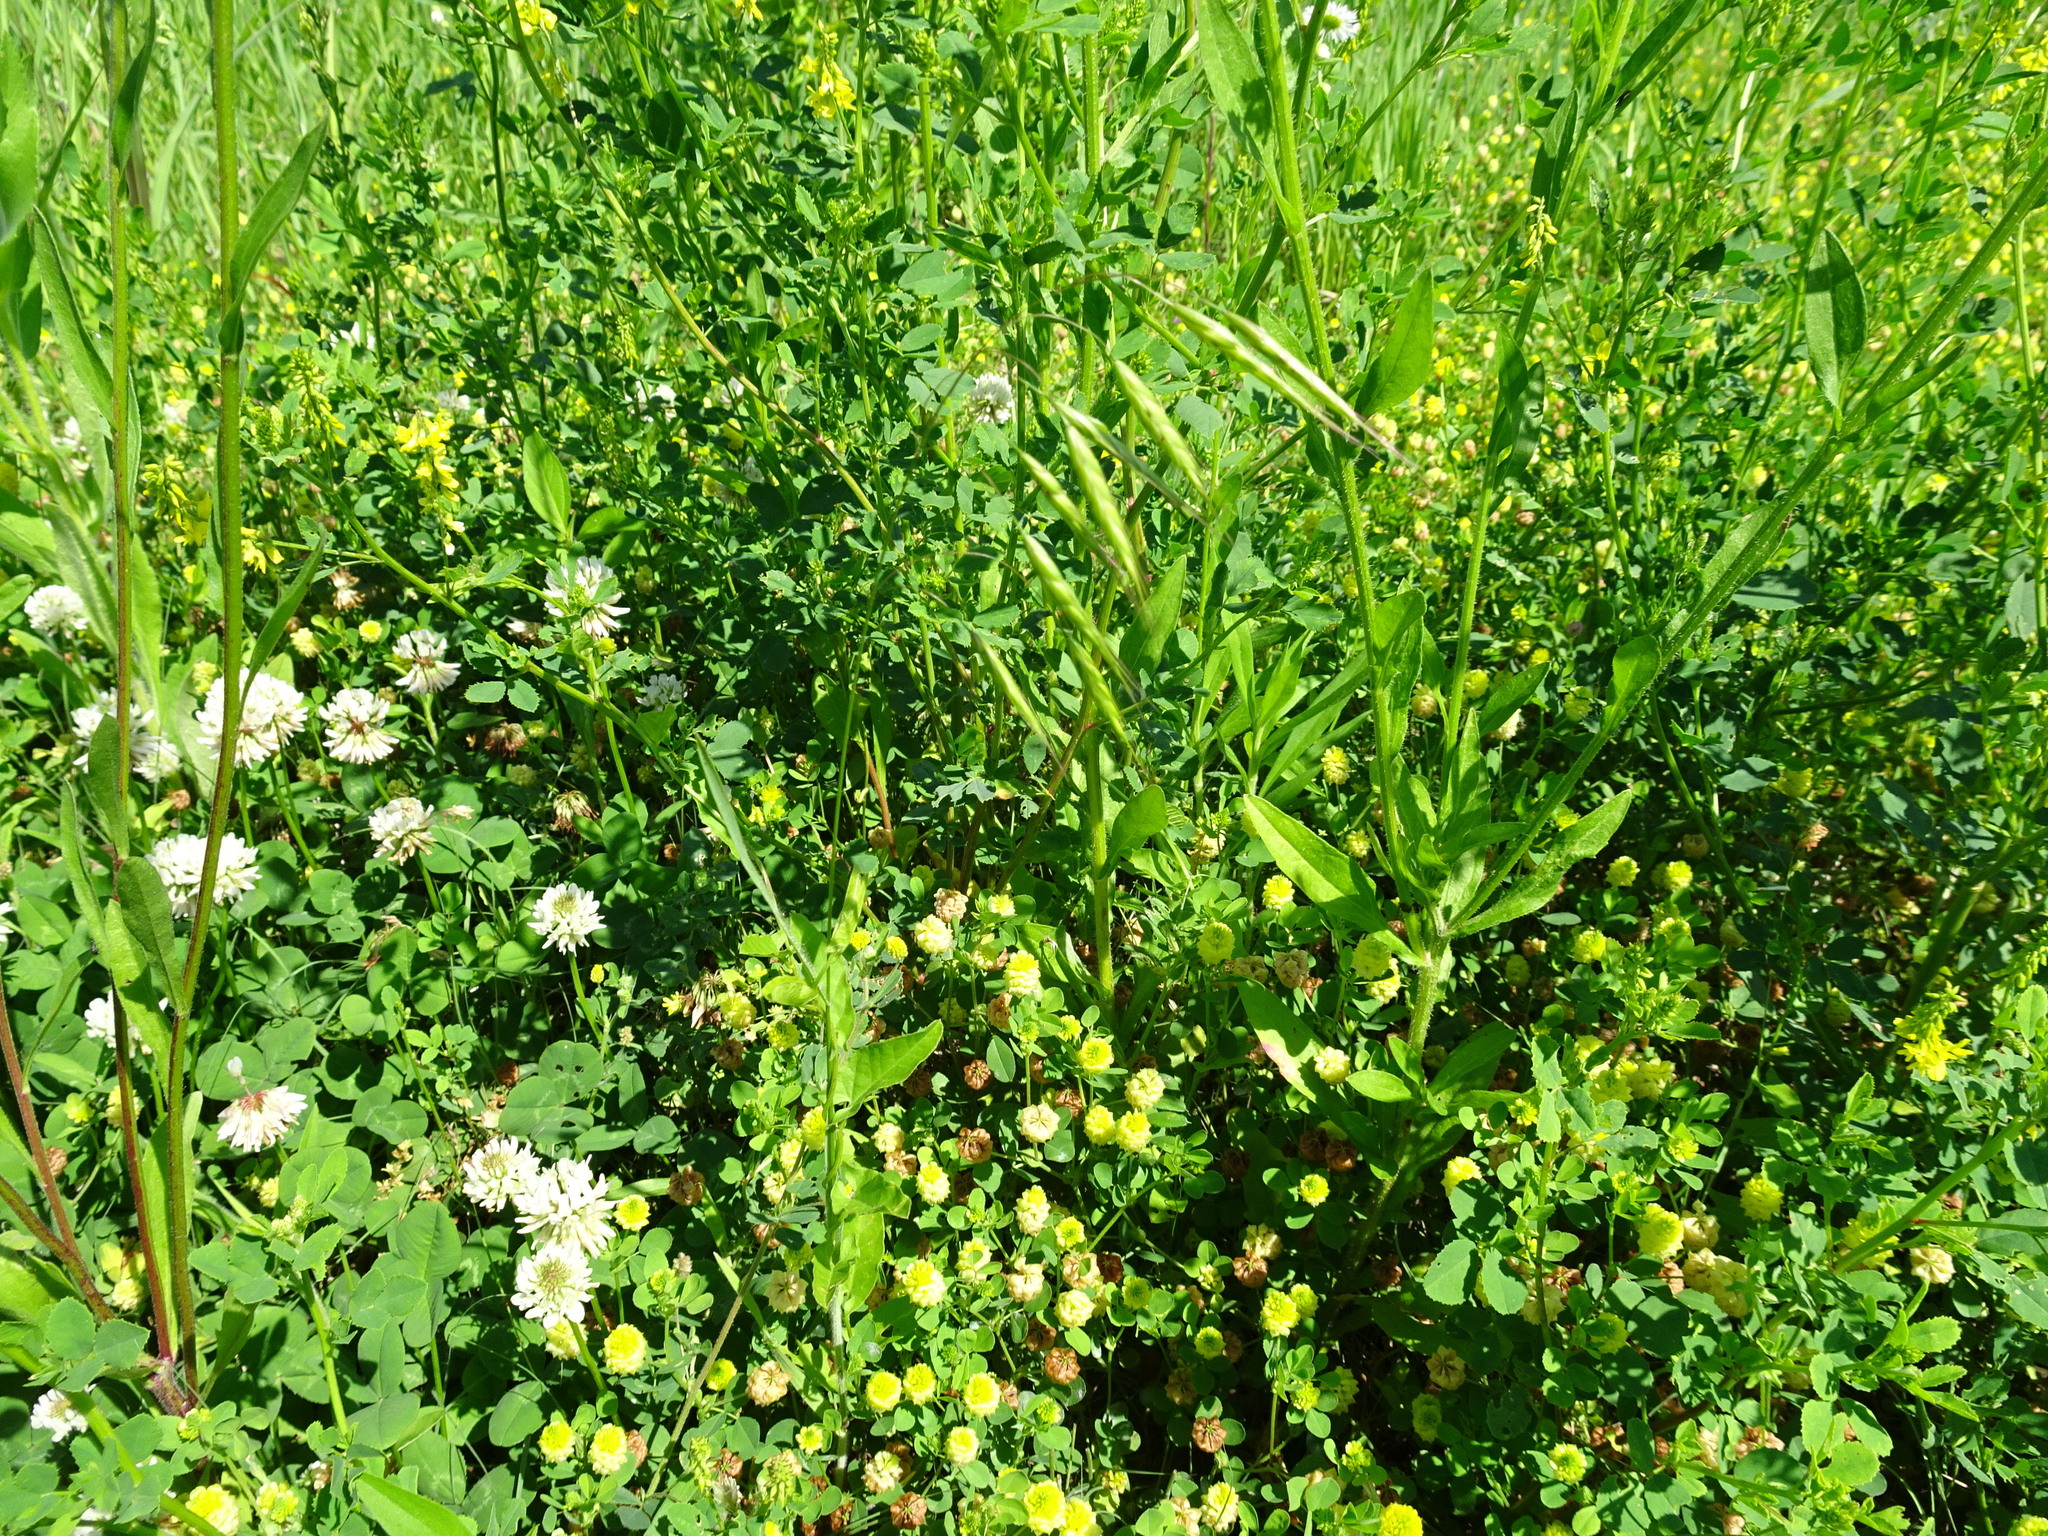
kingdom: Plantae
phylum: Tracheophyta
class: Liliopsida
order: Poales
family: Poaceae
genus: Bromus
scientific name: Bromus japonicus
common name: Japanese brome
